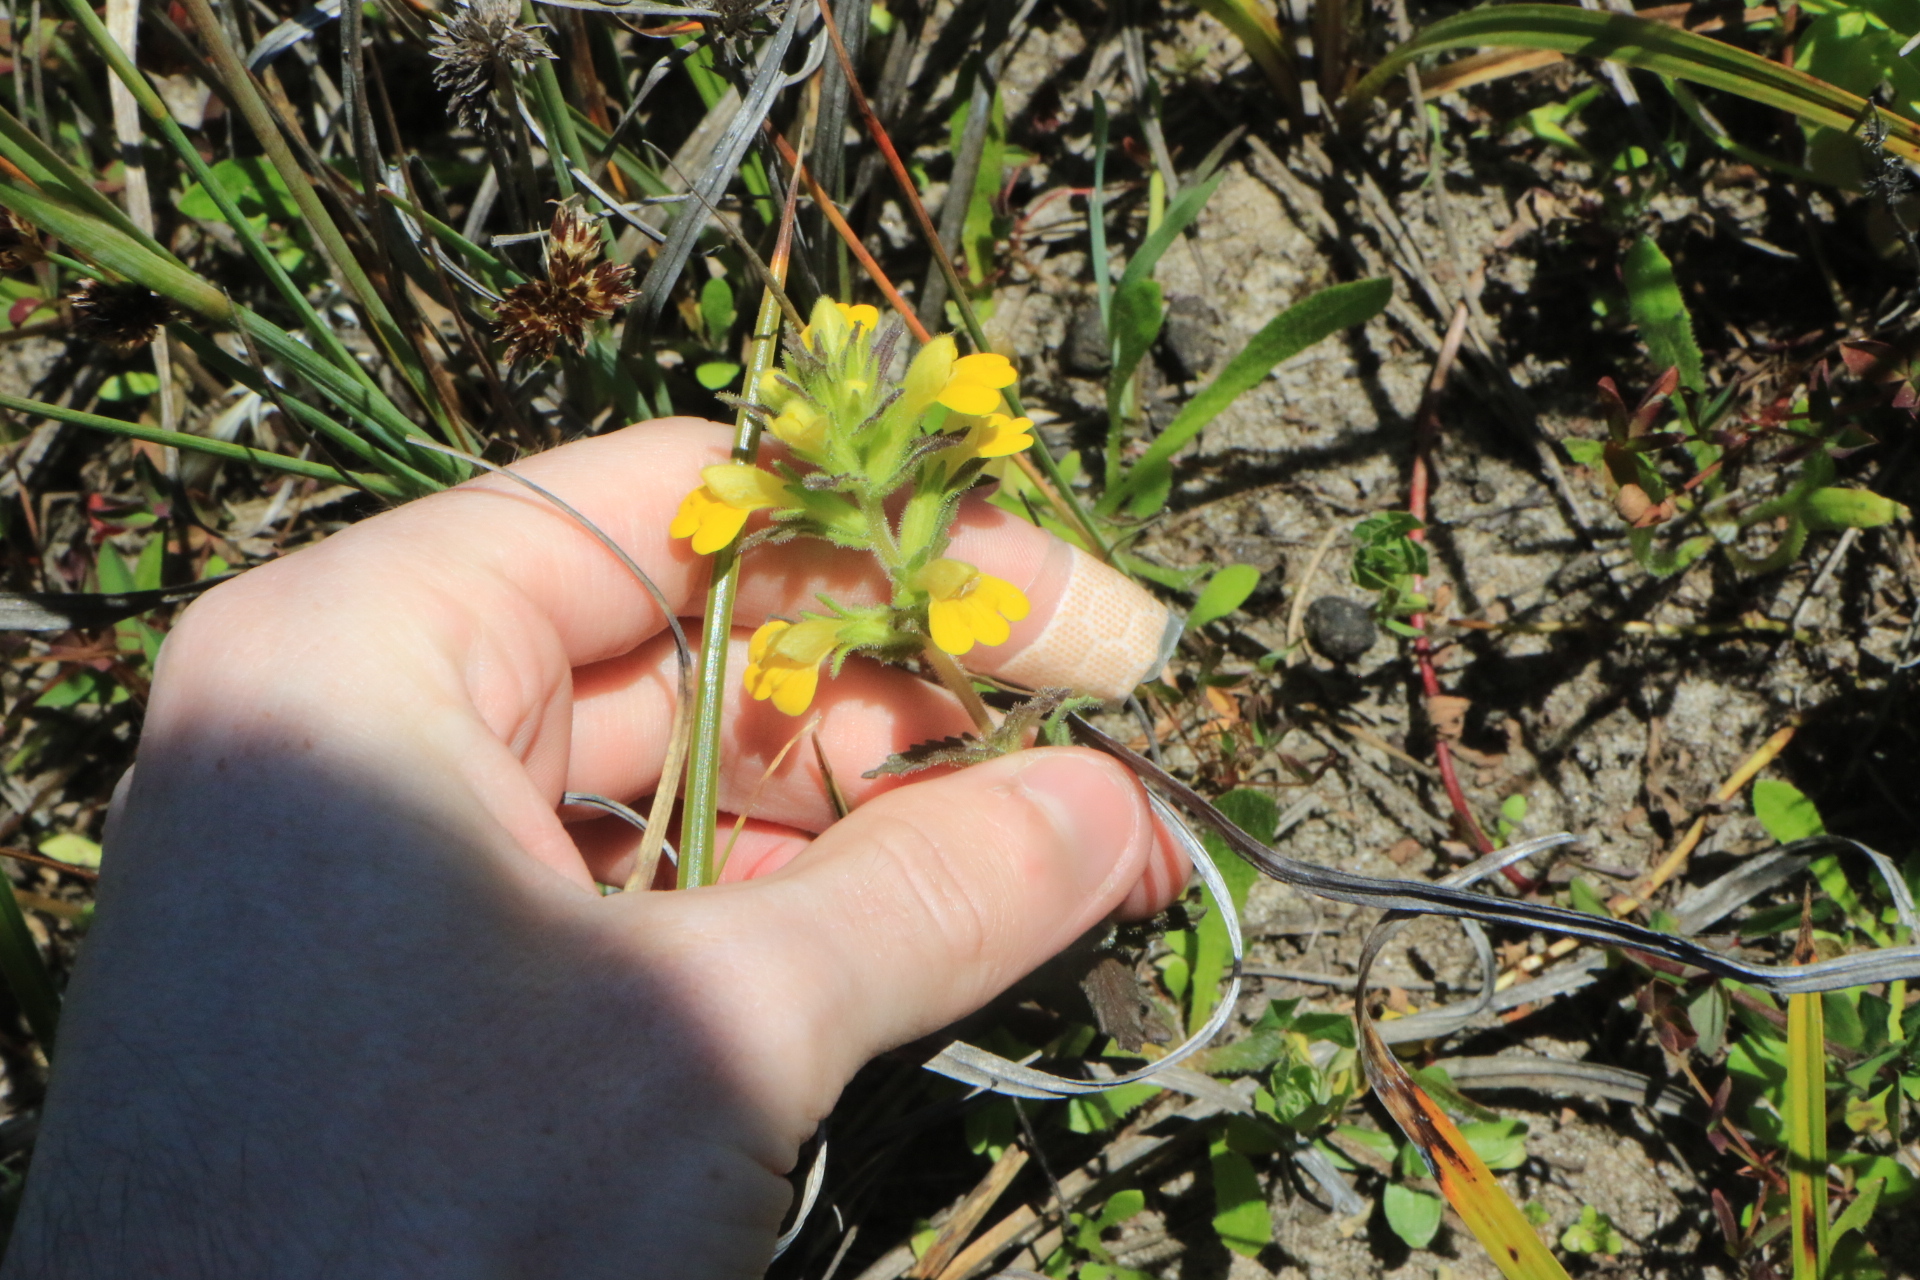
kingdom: Plantae
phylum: Tracheophyta
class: Magnoliopsida
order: Lamiales
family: Orobanchaceae
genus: Bellardia
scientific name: Bellardia viscosa
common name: Sticky parentucellia
